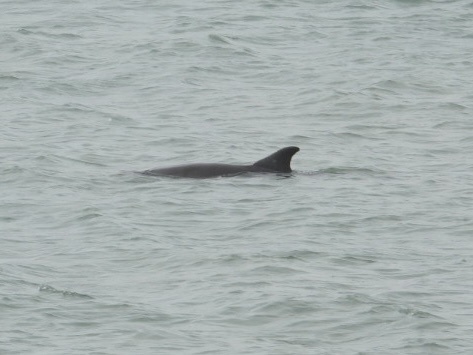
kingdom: Animalia
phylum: Chordata
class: Mammalia
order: Cetacea
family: Delphinidae
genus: Tursiops
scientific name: Tursiops truncatus
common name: Bottlenose dolphin
